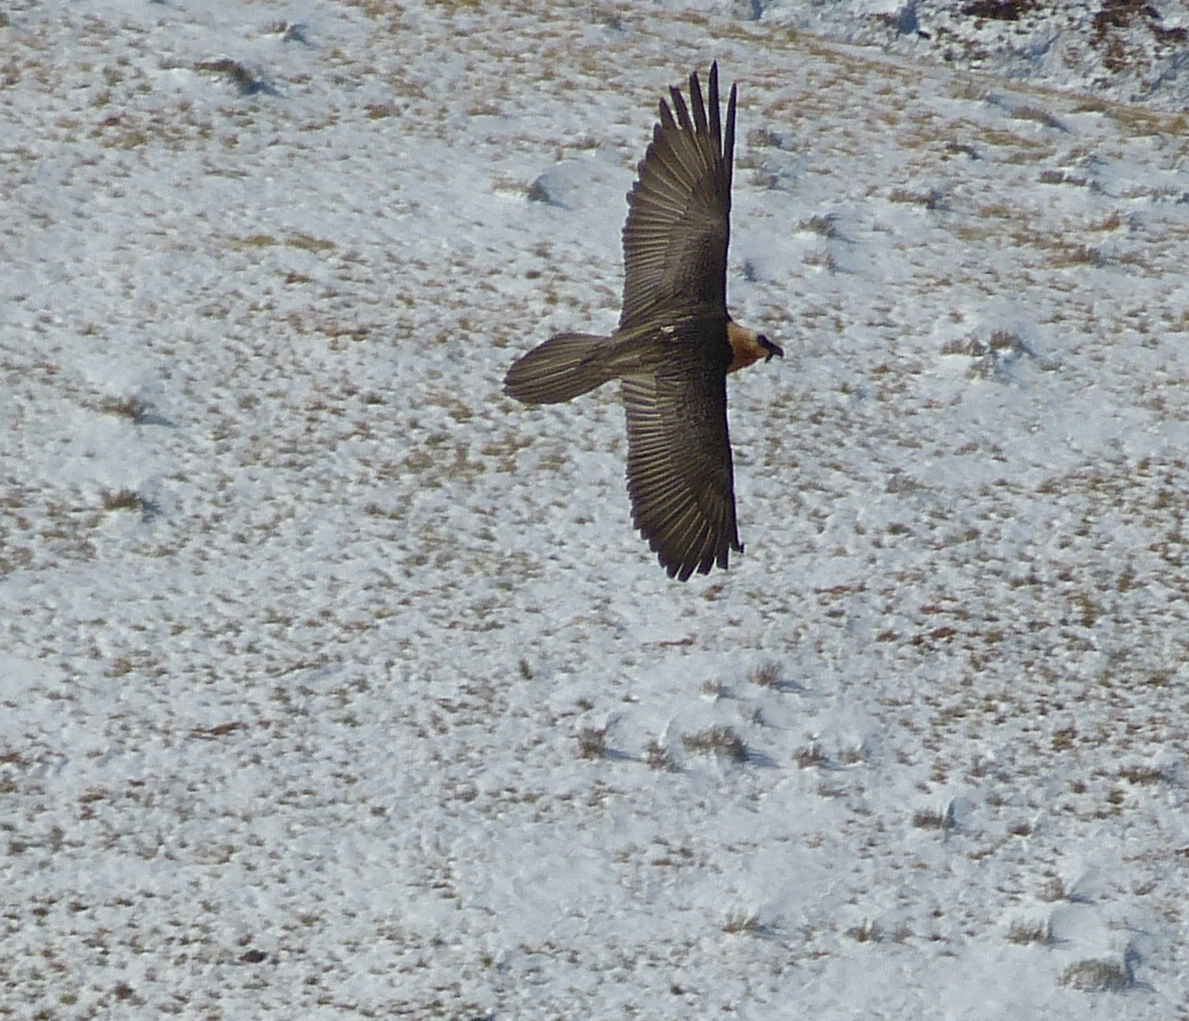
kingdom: Animalia
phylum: Chordata
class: Aves
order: Accipitriformes
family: Accipitridae
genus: Gypaetus
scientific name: Gypaetus barbatus
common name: Bearded vulture
